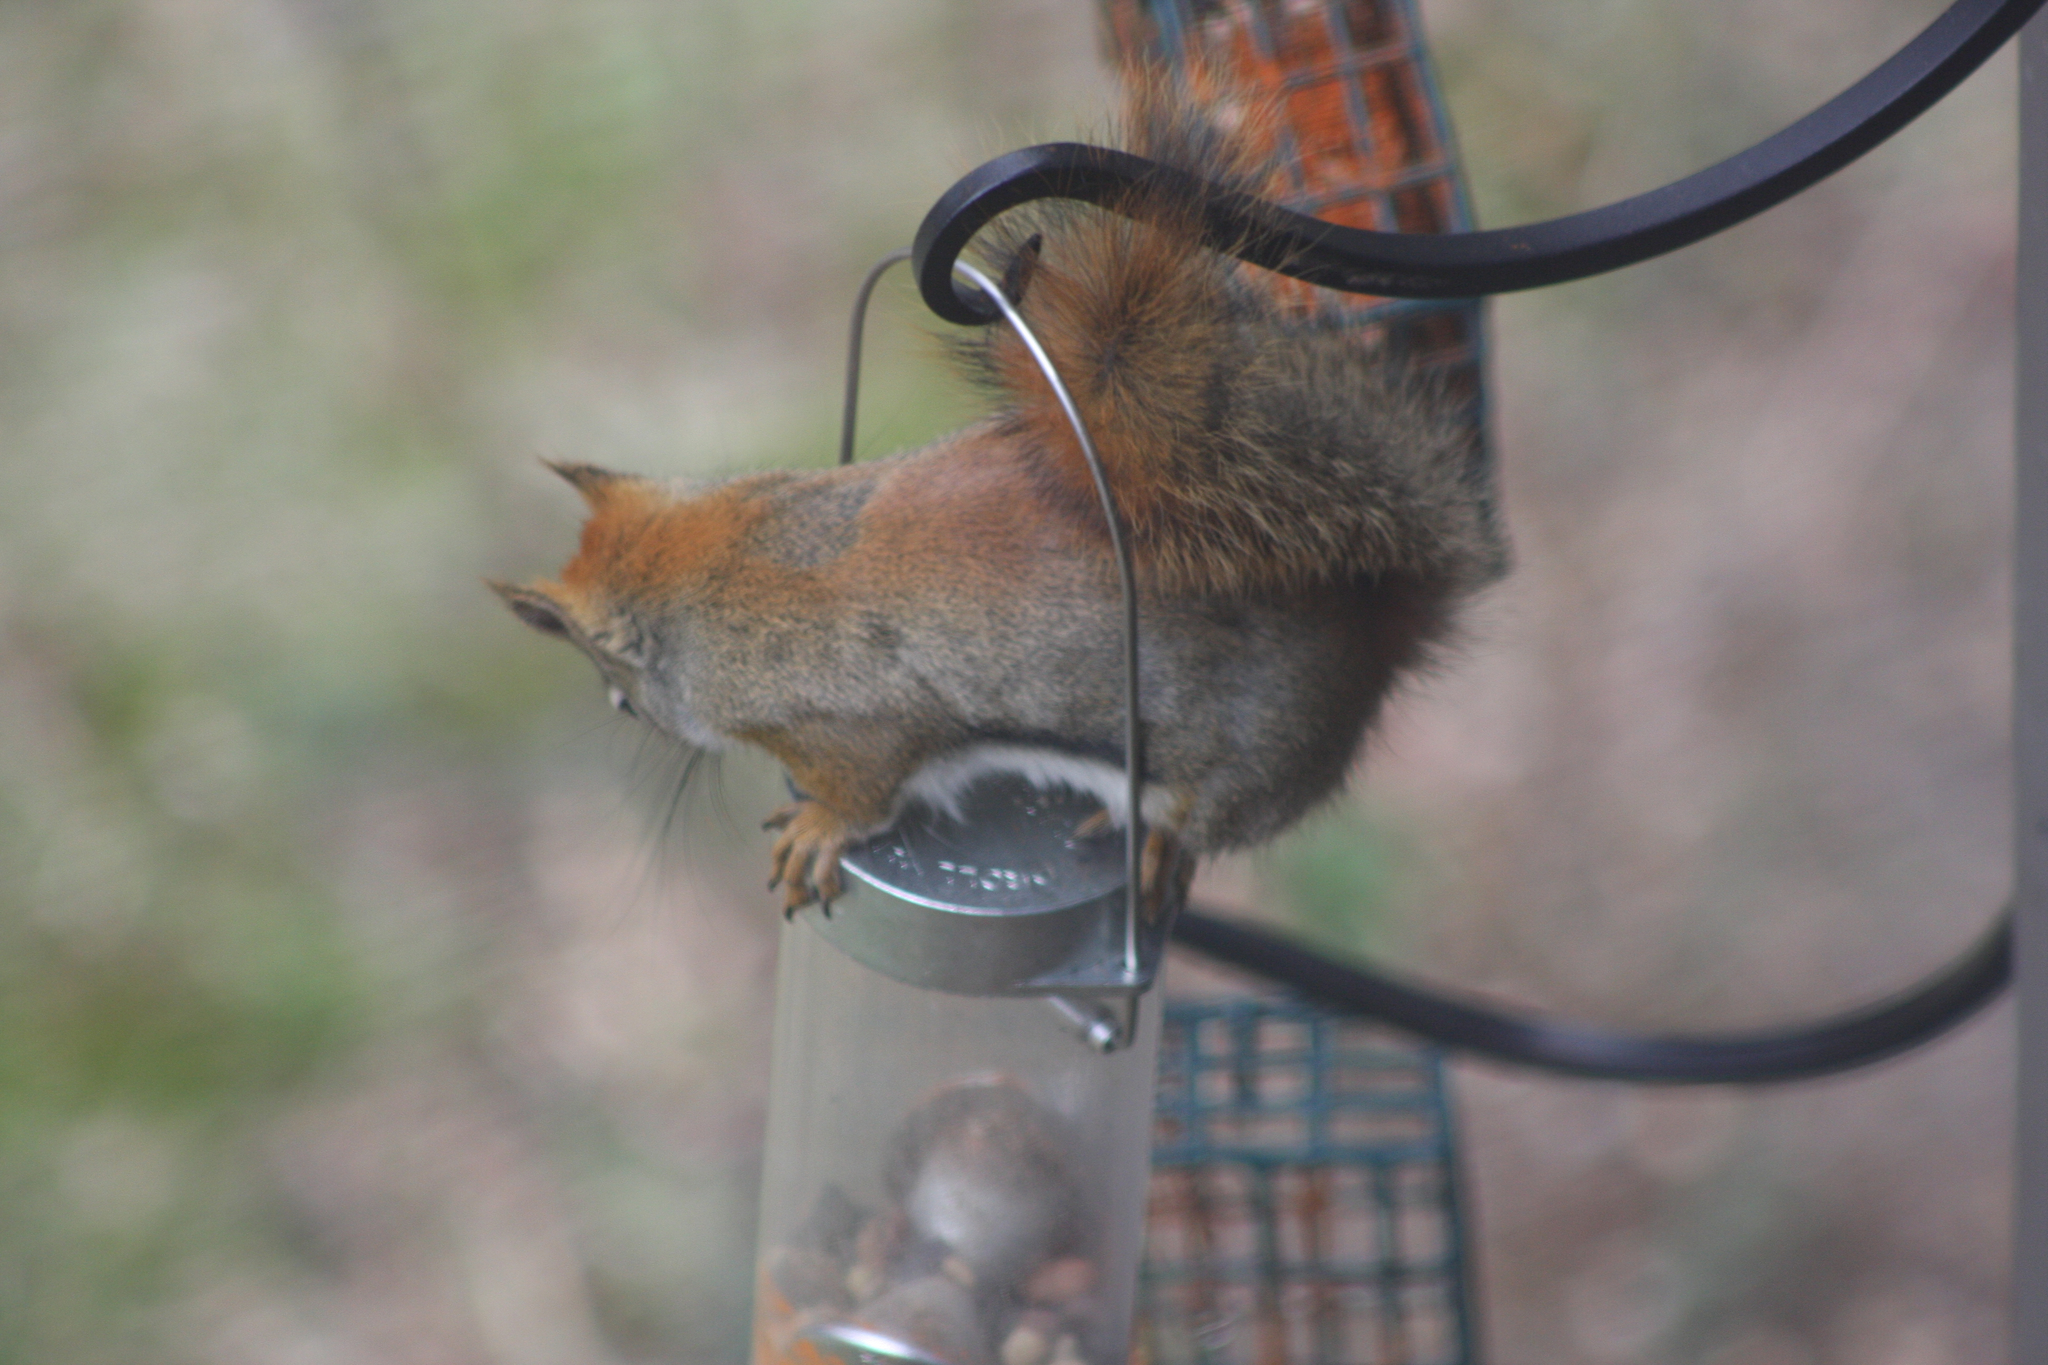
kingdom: Animalia
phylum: Chordata
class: Mammalia
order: Rodentia
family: Sciuridae
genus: Tamiasciurus
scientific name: Tamiasciurus hudsonicus
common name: Red squirrel
